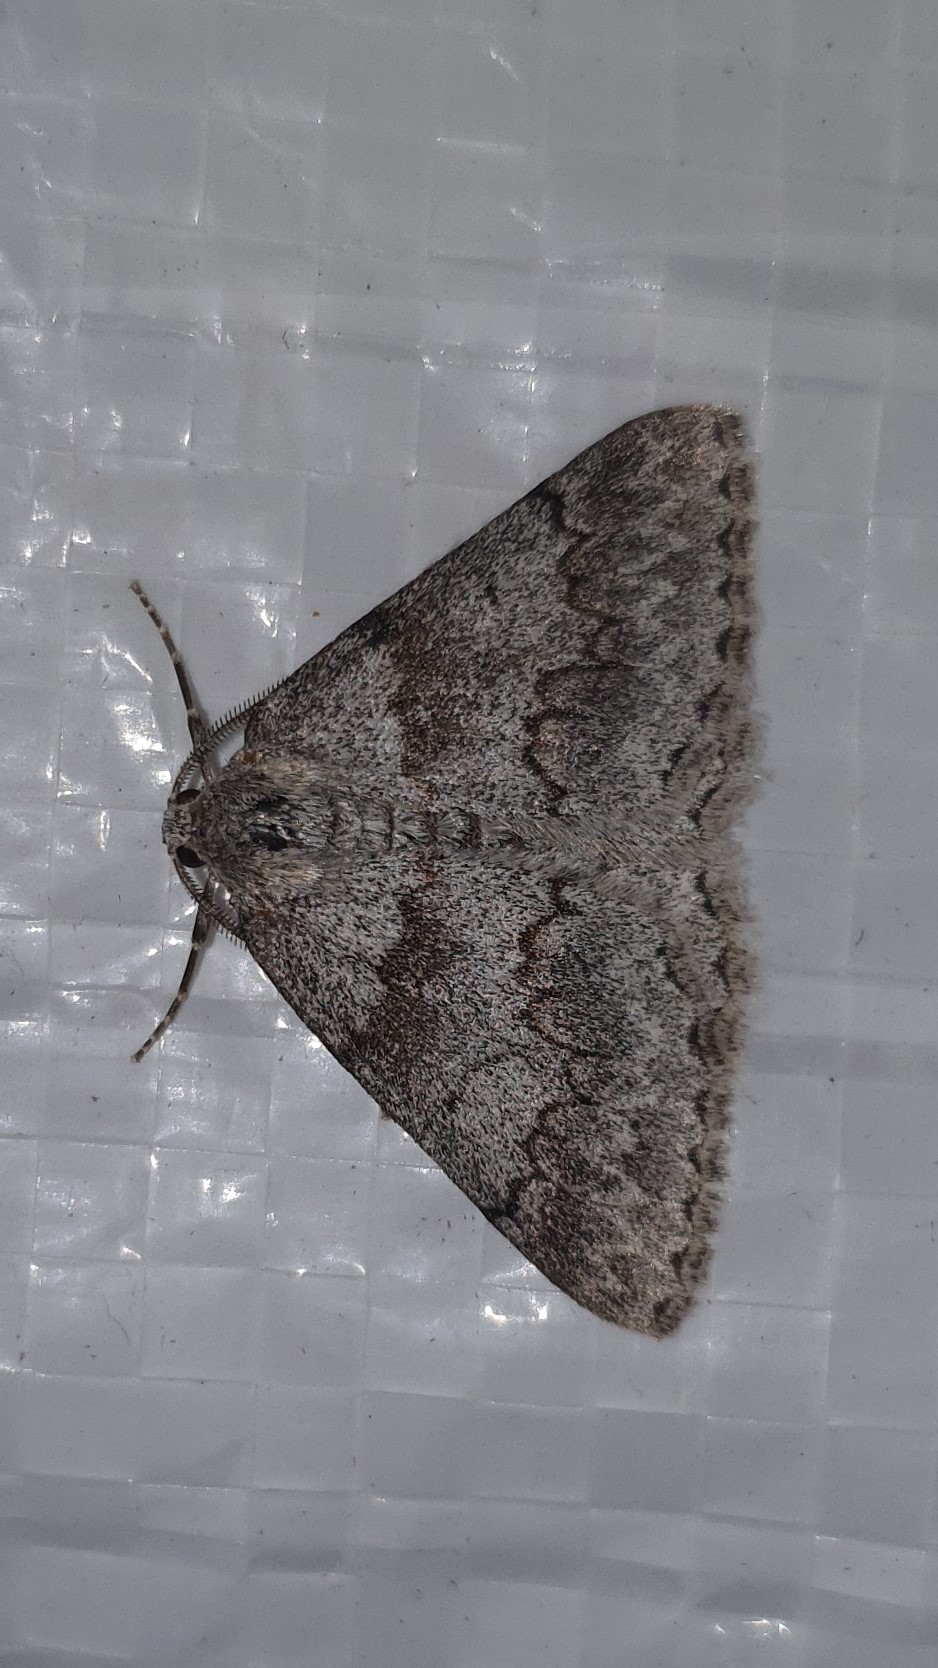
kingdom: Animalia
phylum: Arthropoda
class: Insecta
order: Lepidoptera
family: Geometridae
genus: Pseudoterpna
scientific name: Pseudoterpna coronillaria
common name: Jersey emerald
